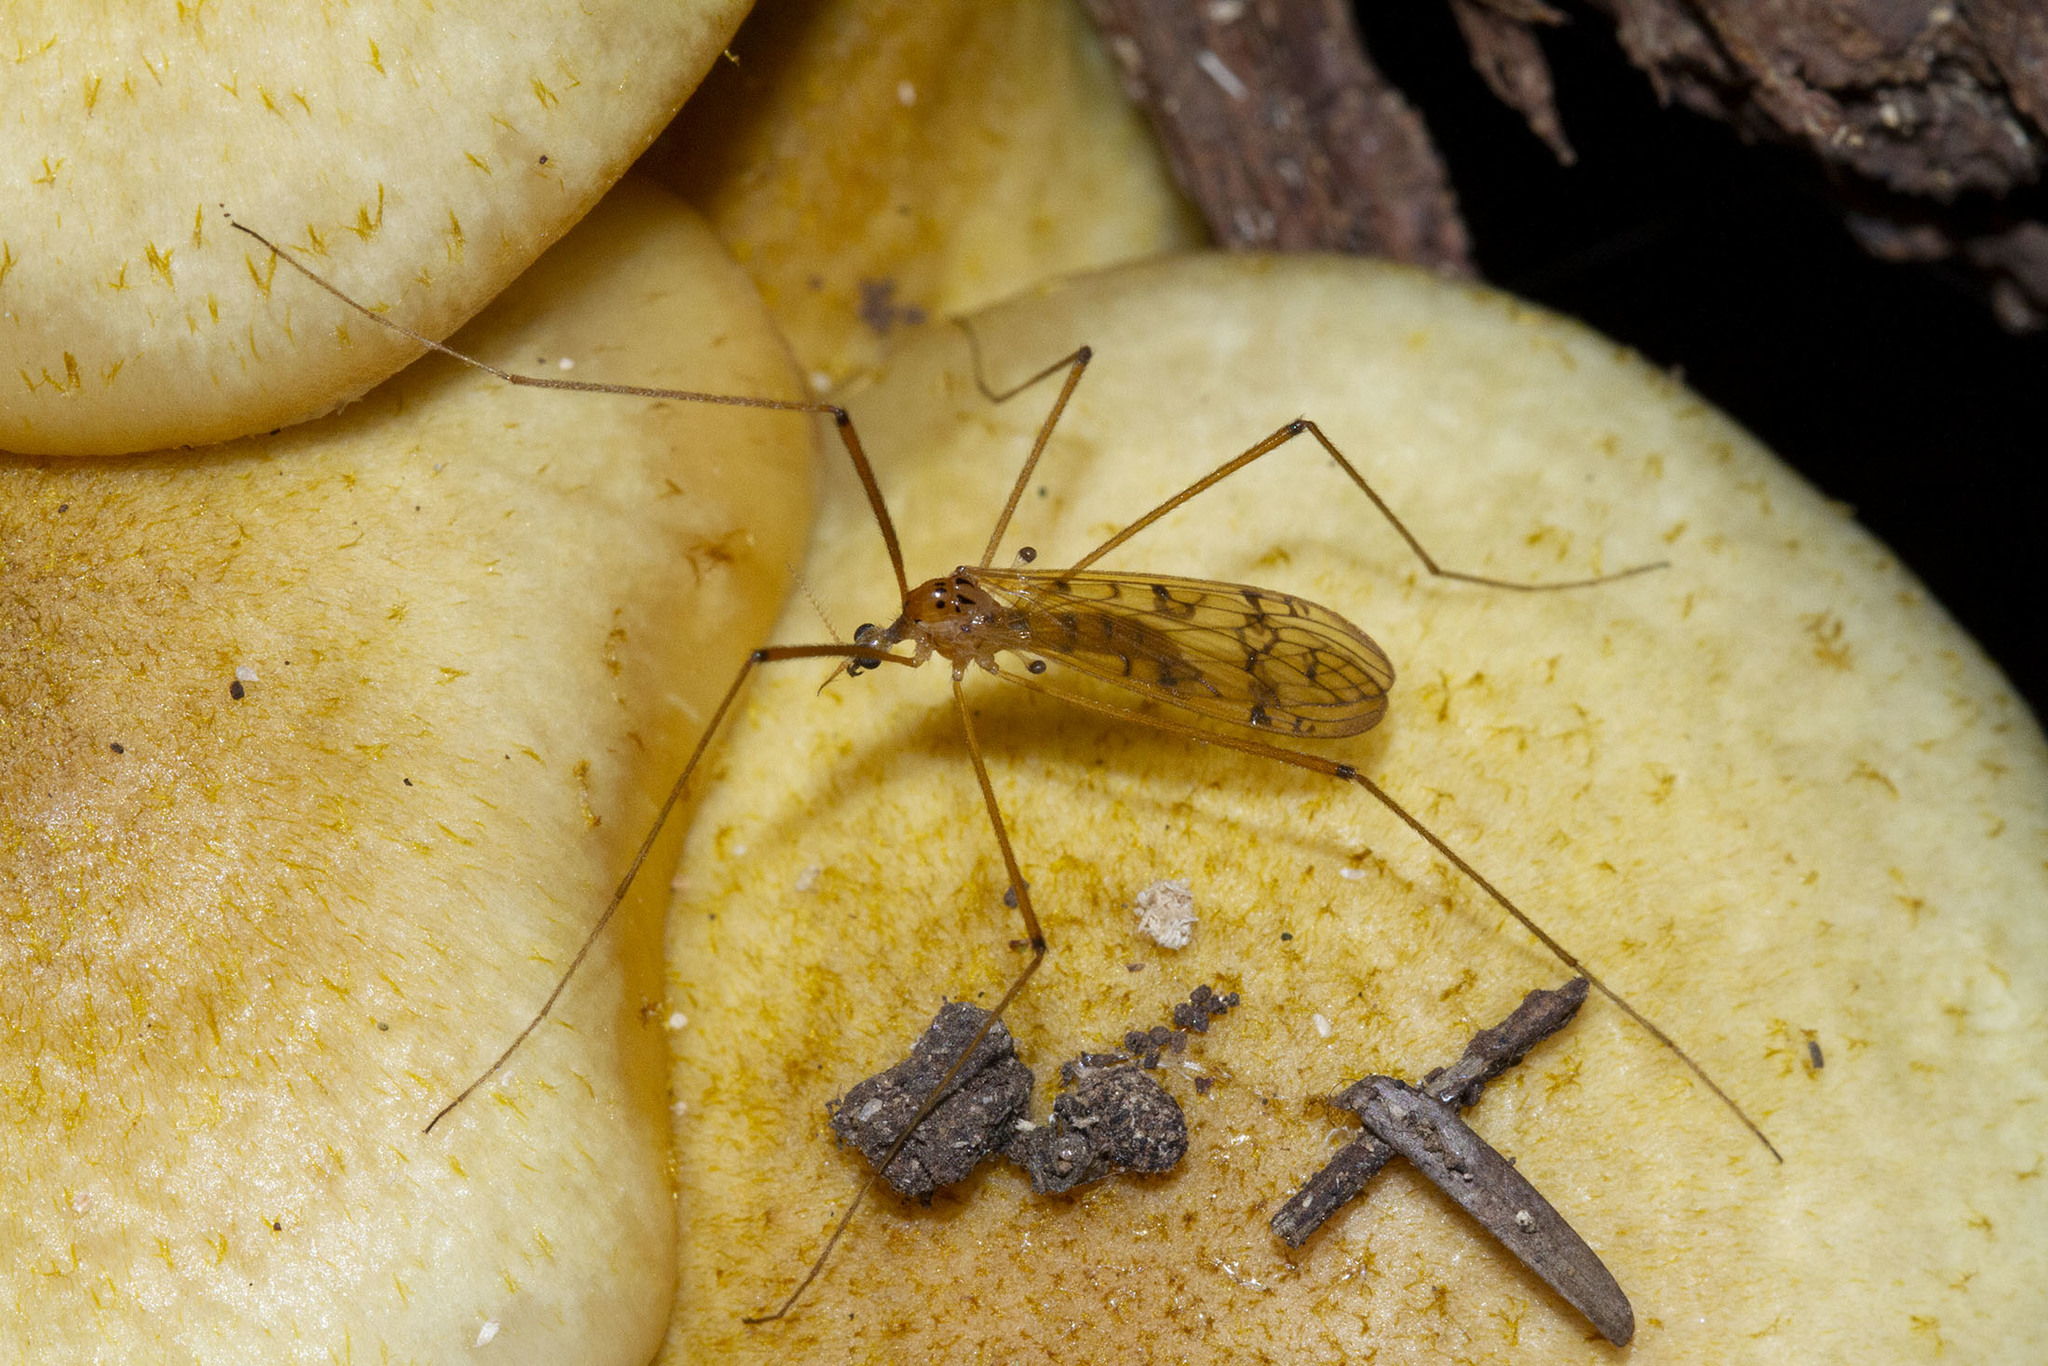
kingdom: Animalia
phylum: Arthropoda
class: Insecta
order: Diptera
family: Limoniidae
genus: Metalimnobia
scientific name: Metalimnobia triocellata
